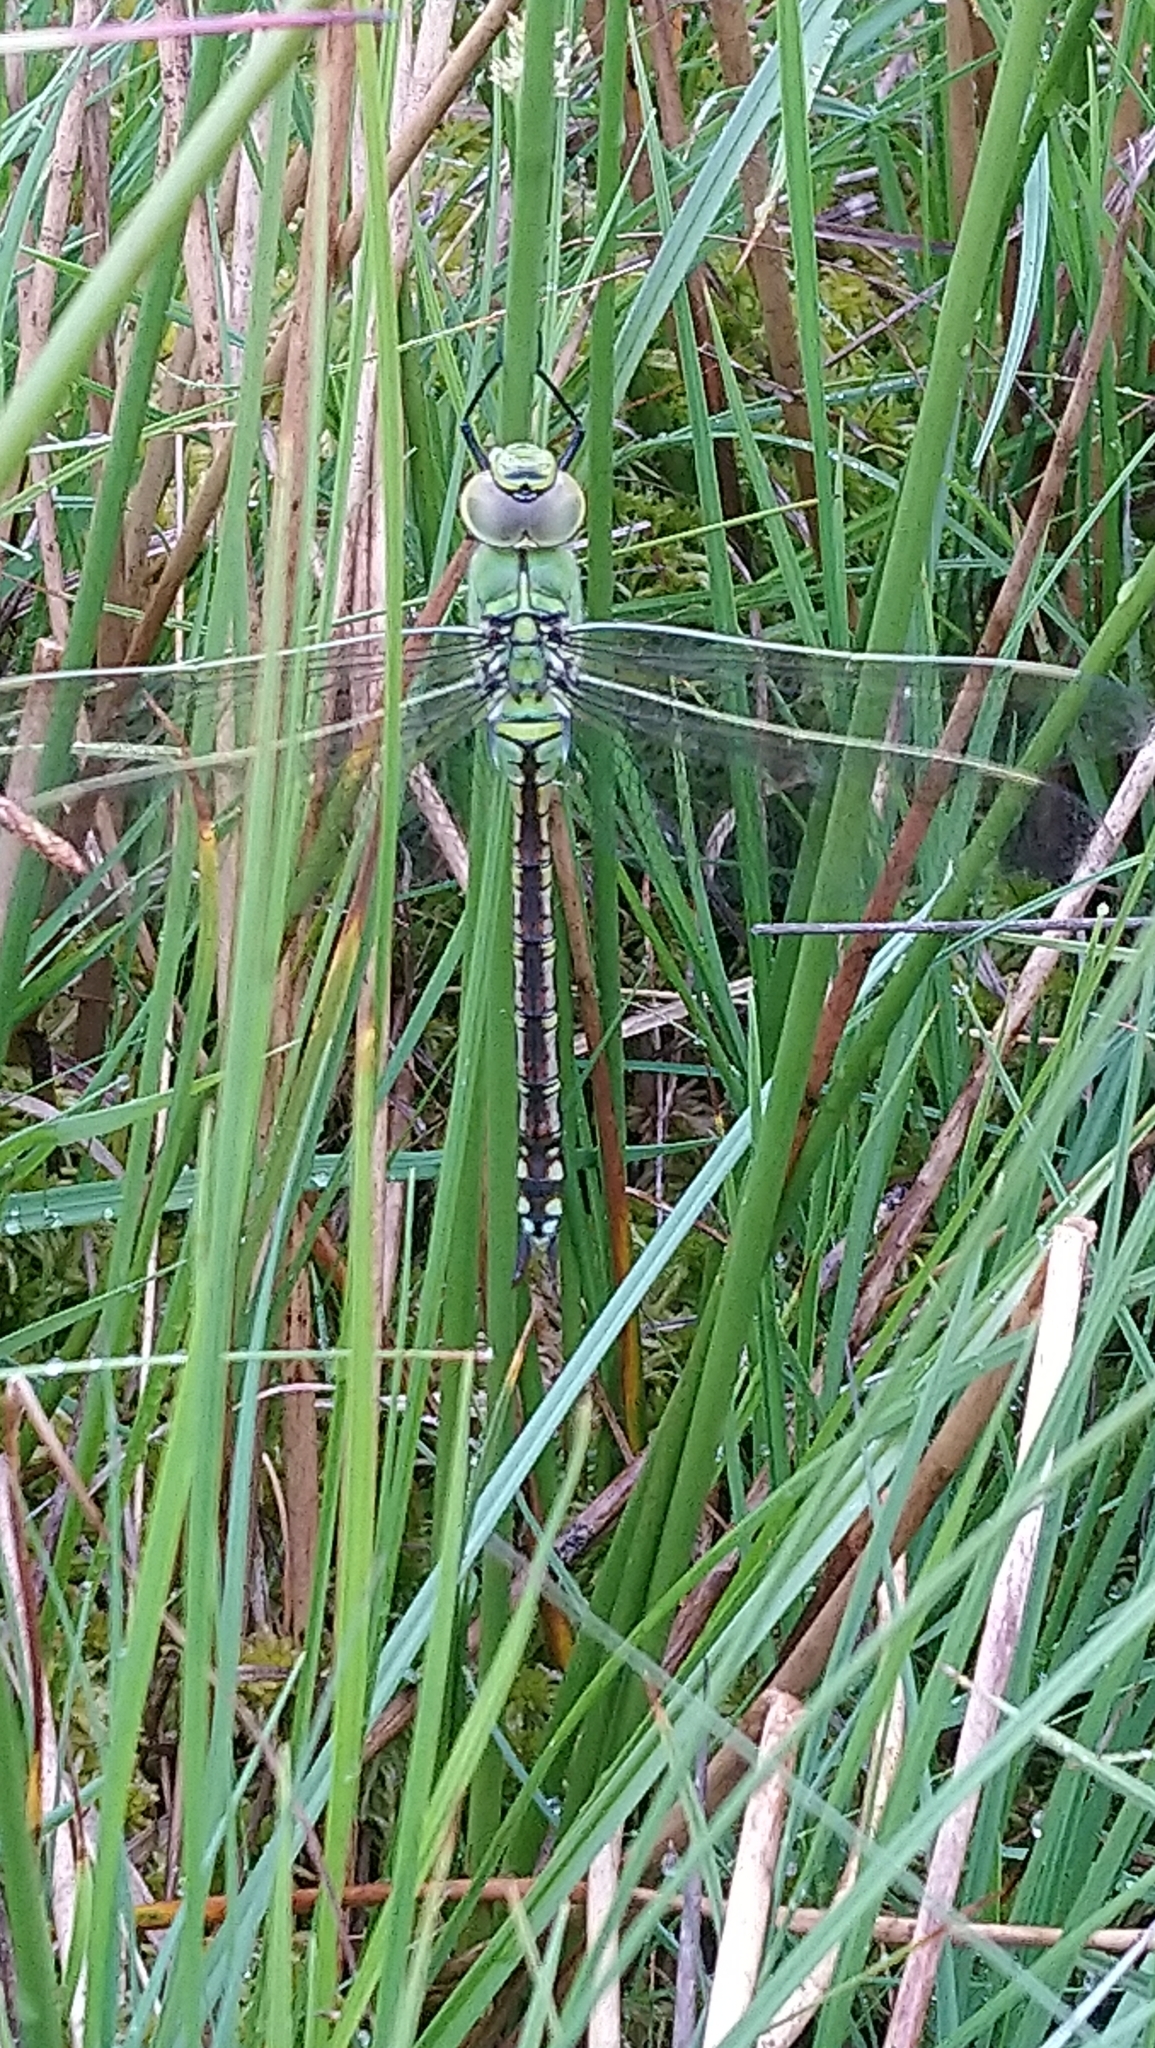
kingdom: Animalia
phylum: Arthropoda
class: Insecta
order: Odonata
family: Aeshnidae
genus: Anax
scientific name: Anax imperator
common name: Emperor dragonfly
